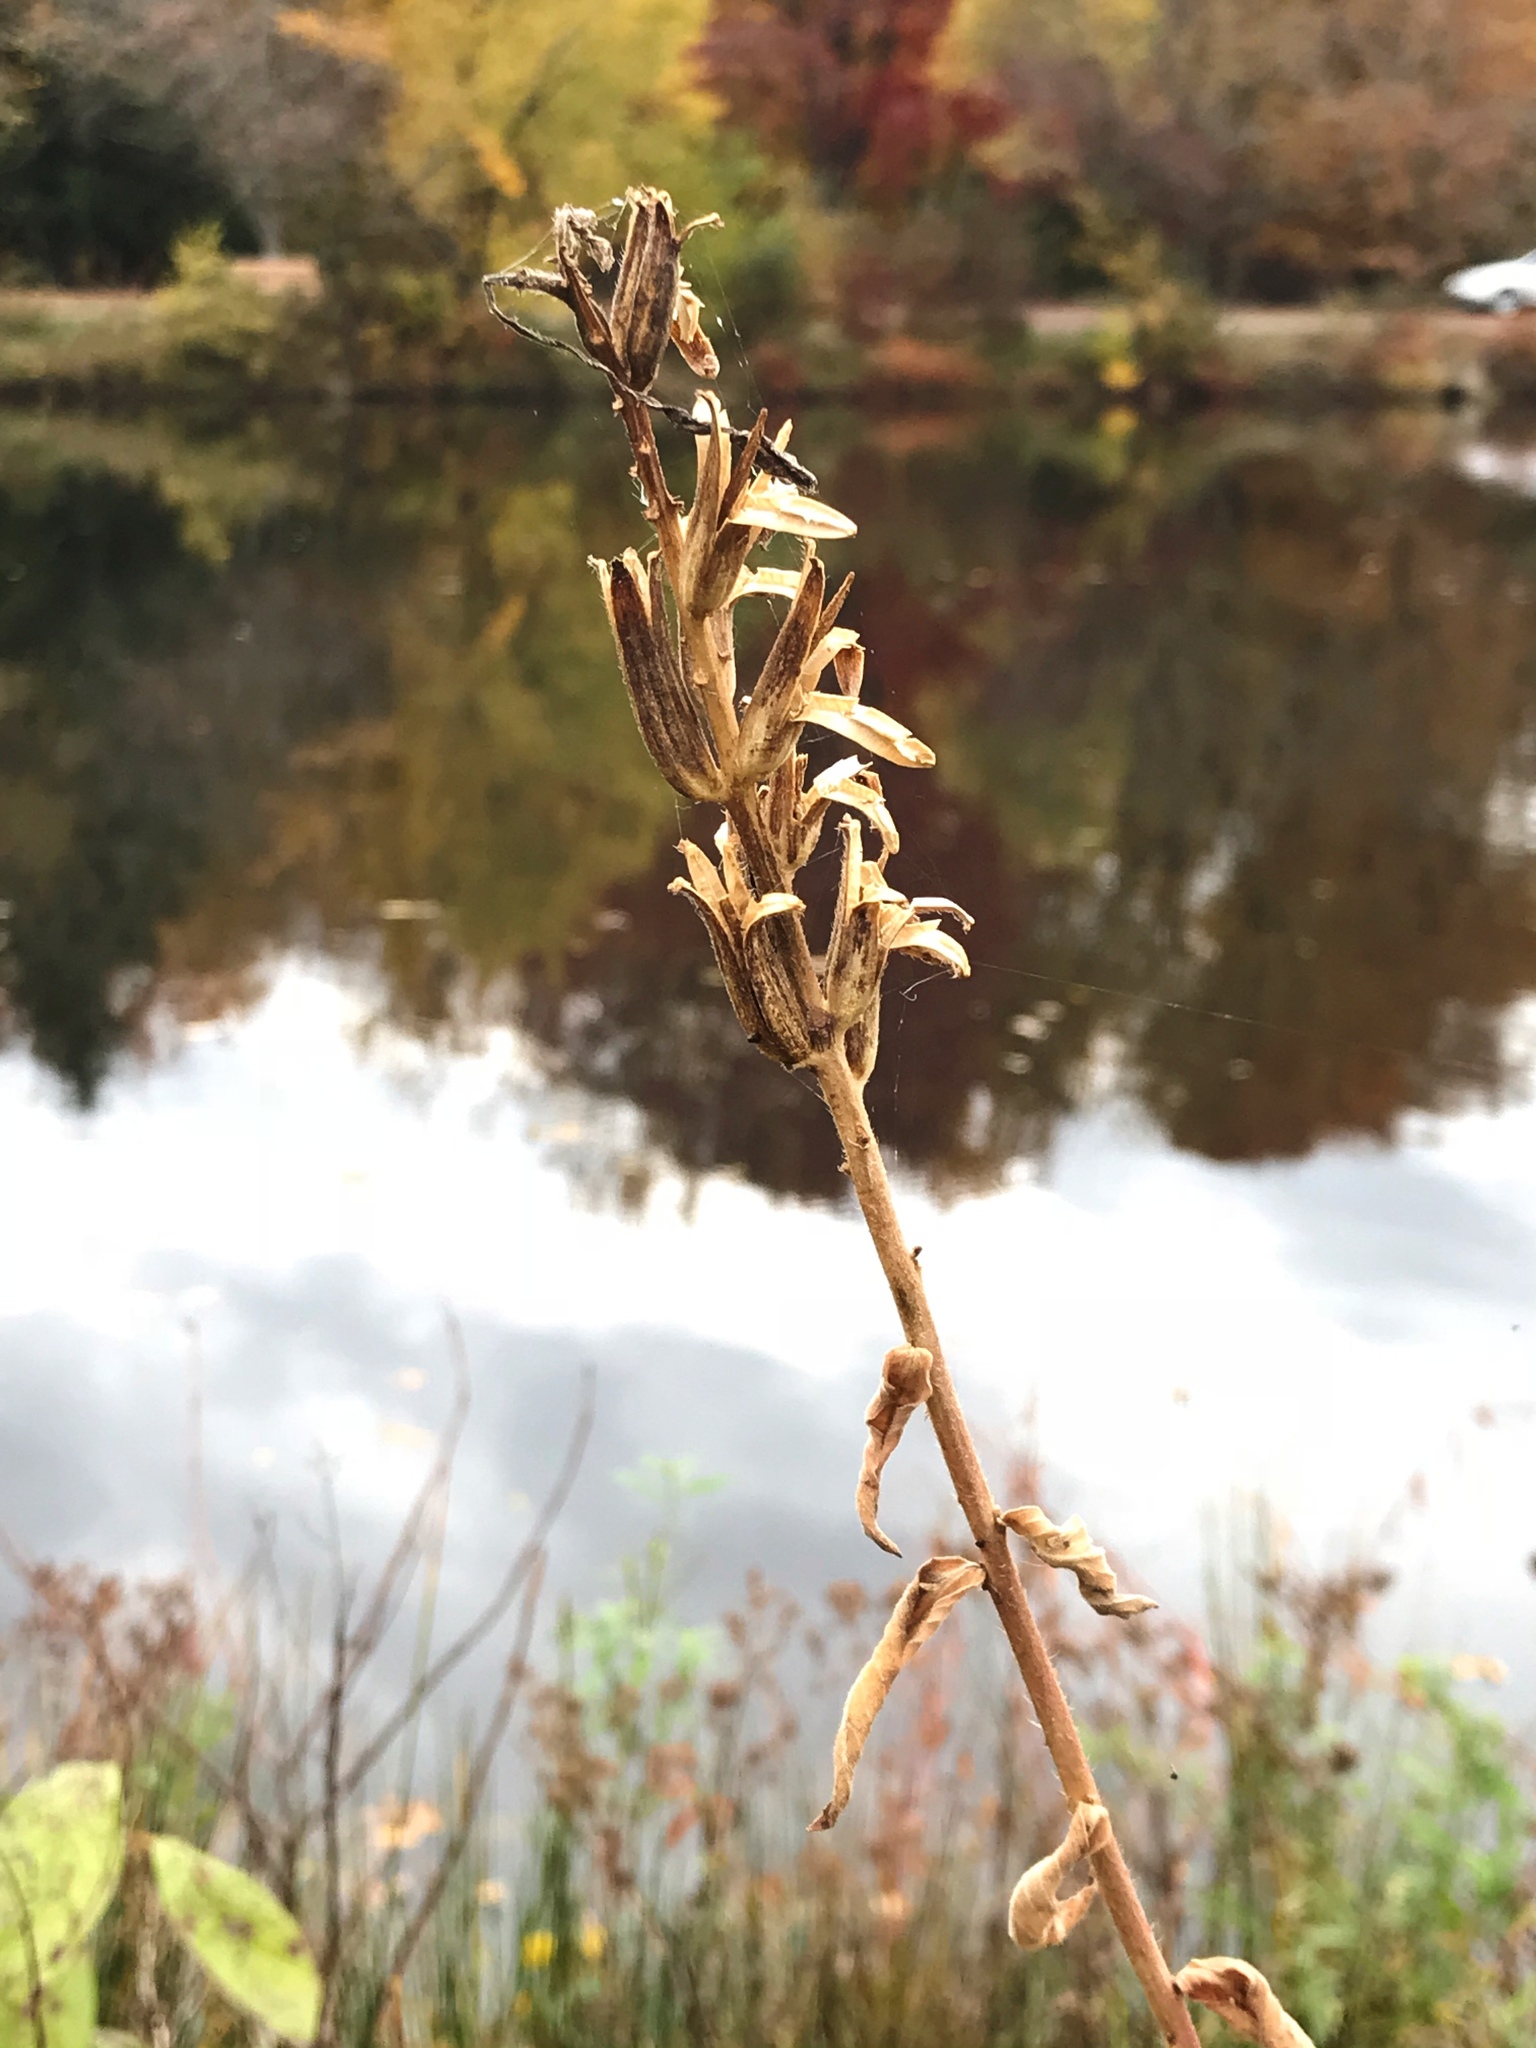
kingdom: Plantae
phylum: Tracheophyta
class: Magnoliopsida
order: Myrtales
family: Onagraceae
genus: Oenothera
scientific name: Oenothera biennis
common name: Common evening-primrose
